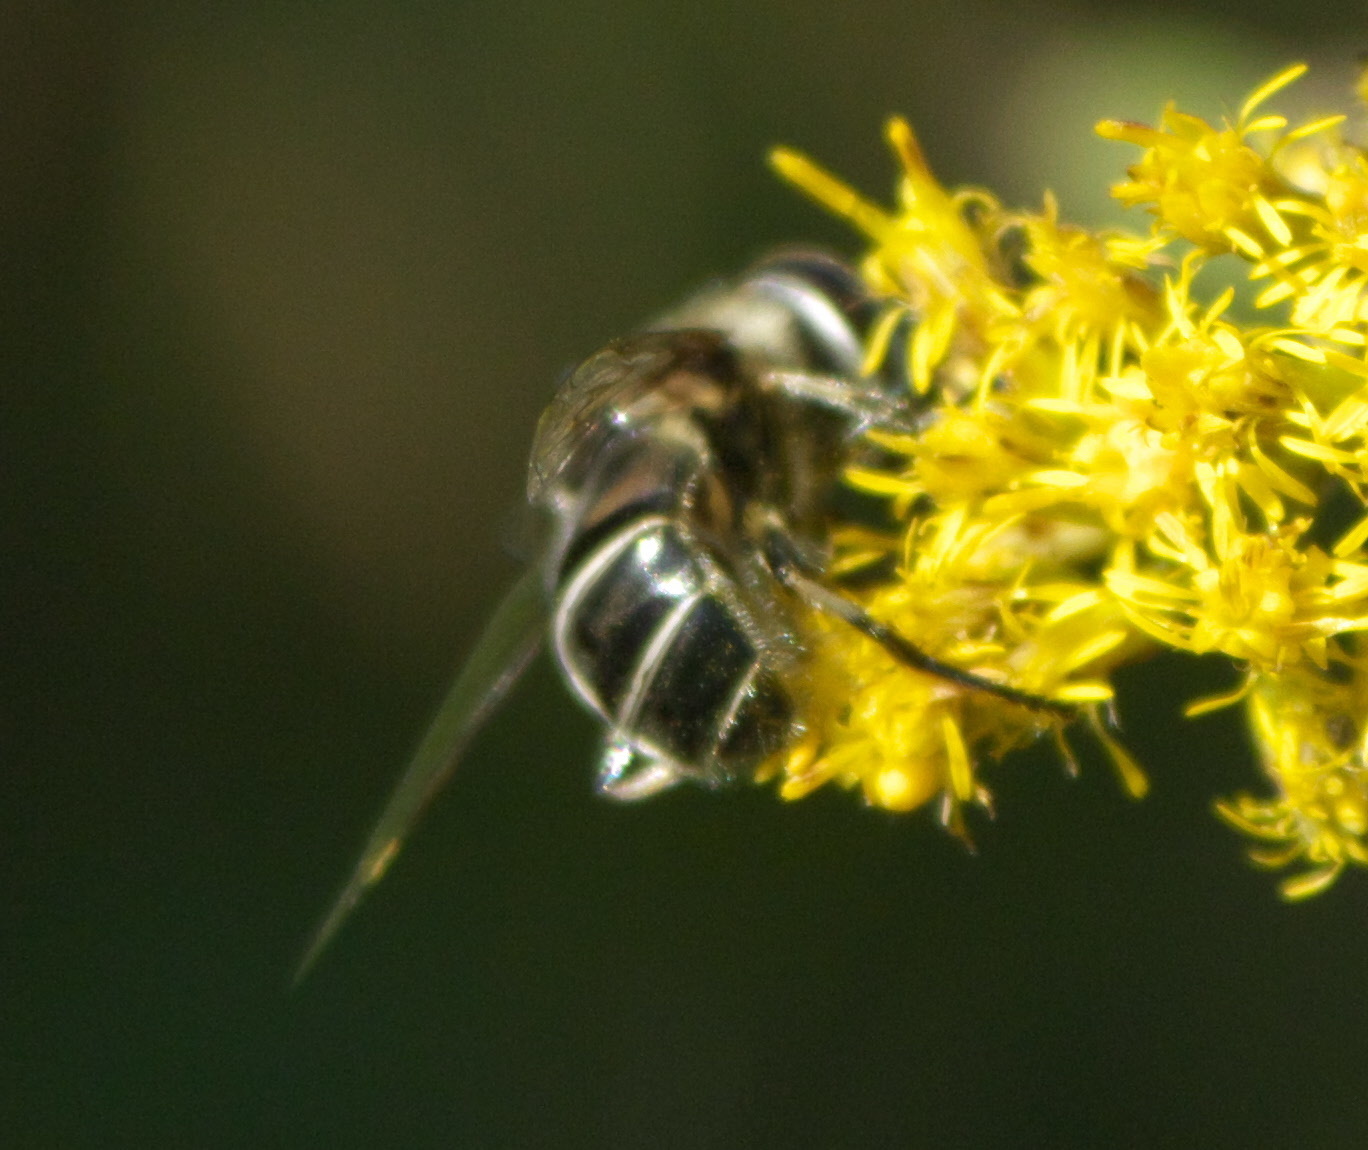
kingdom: Animalia
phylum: Arthropoda
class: Insecta
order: Diptera
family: Syrphidae
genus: Eristalis
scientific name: Eristalis dimidiata
